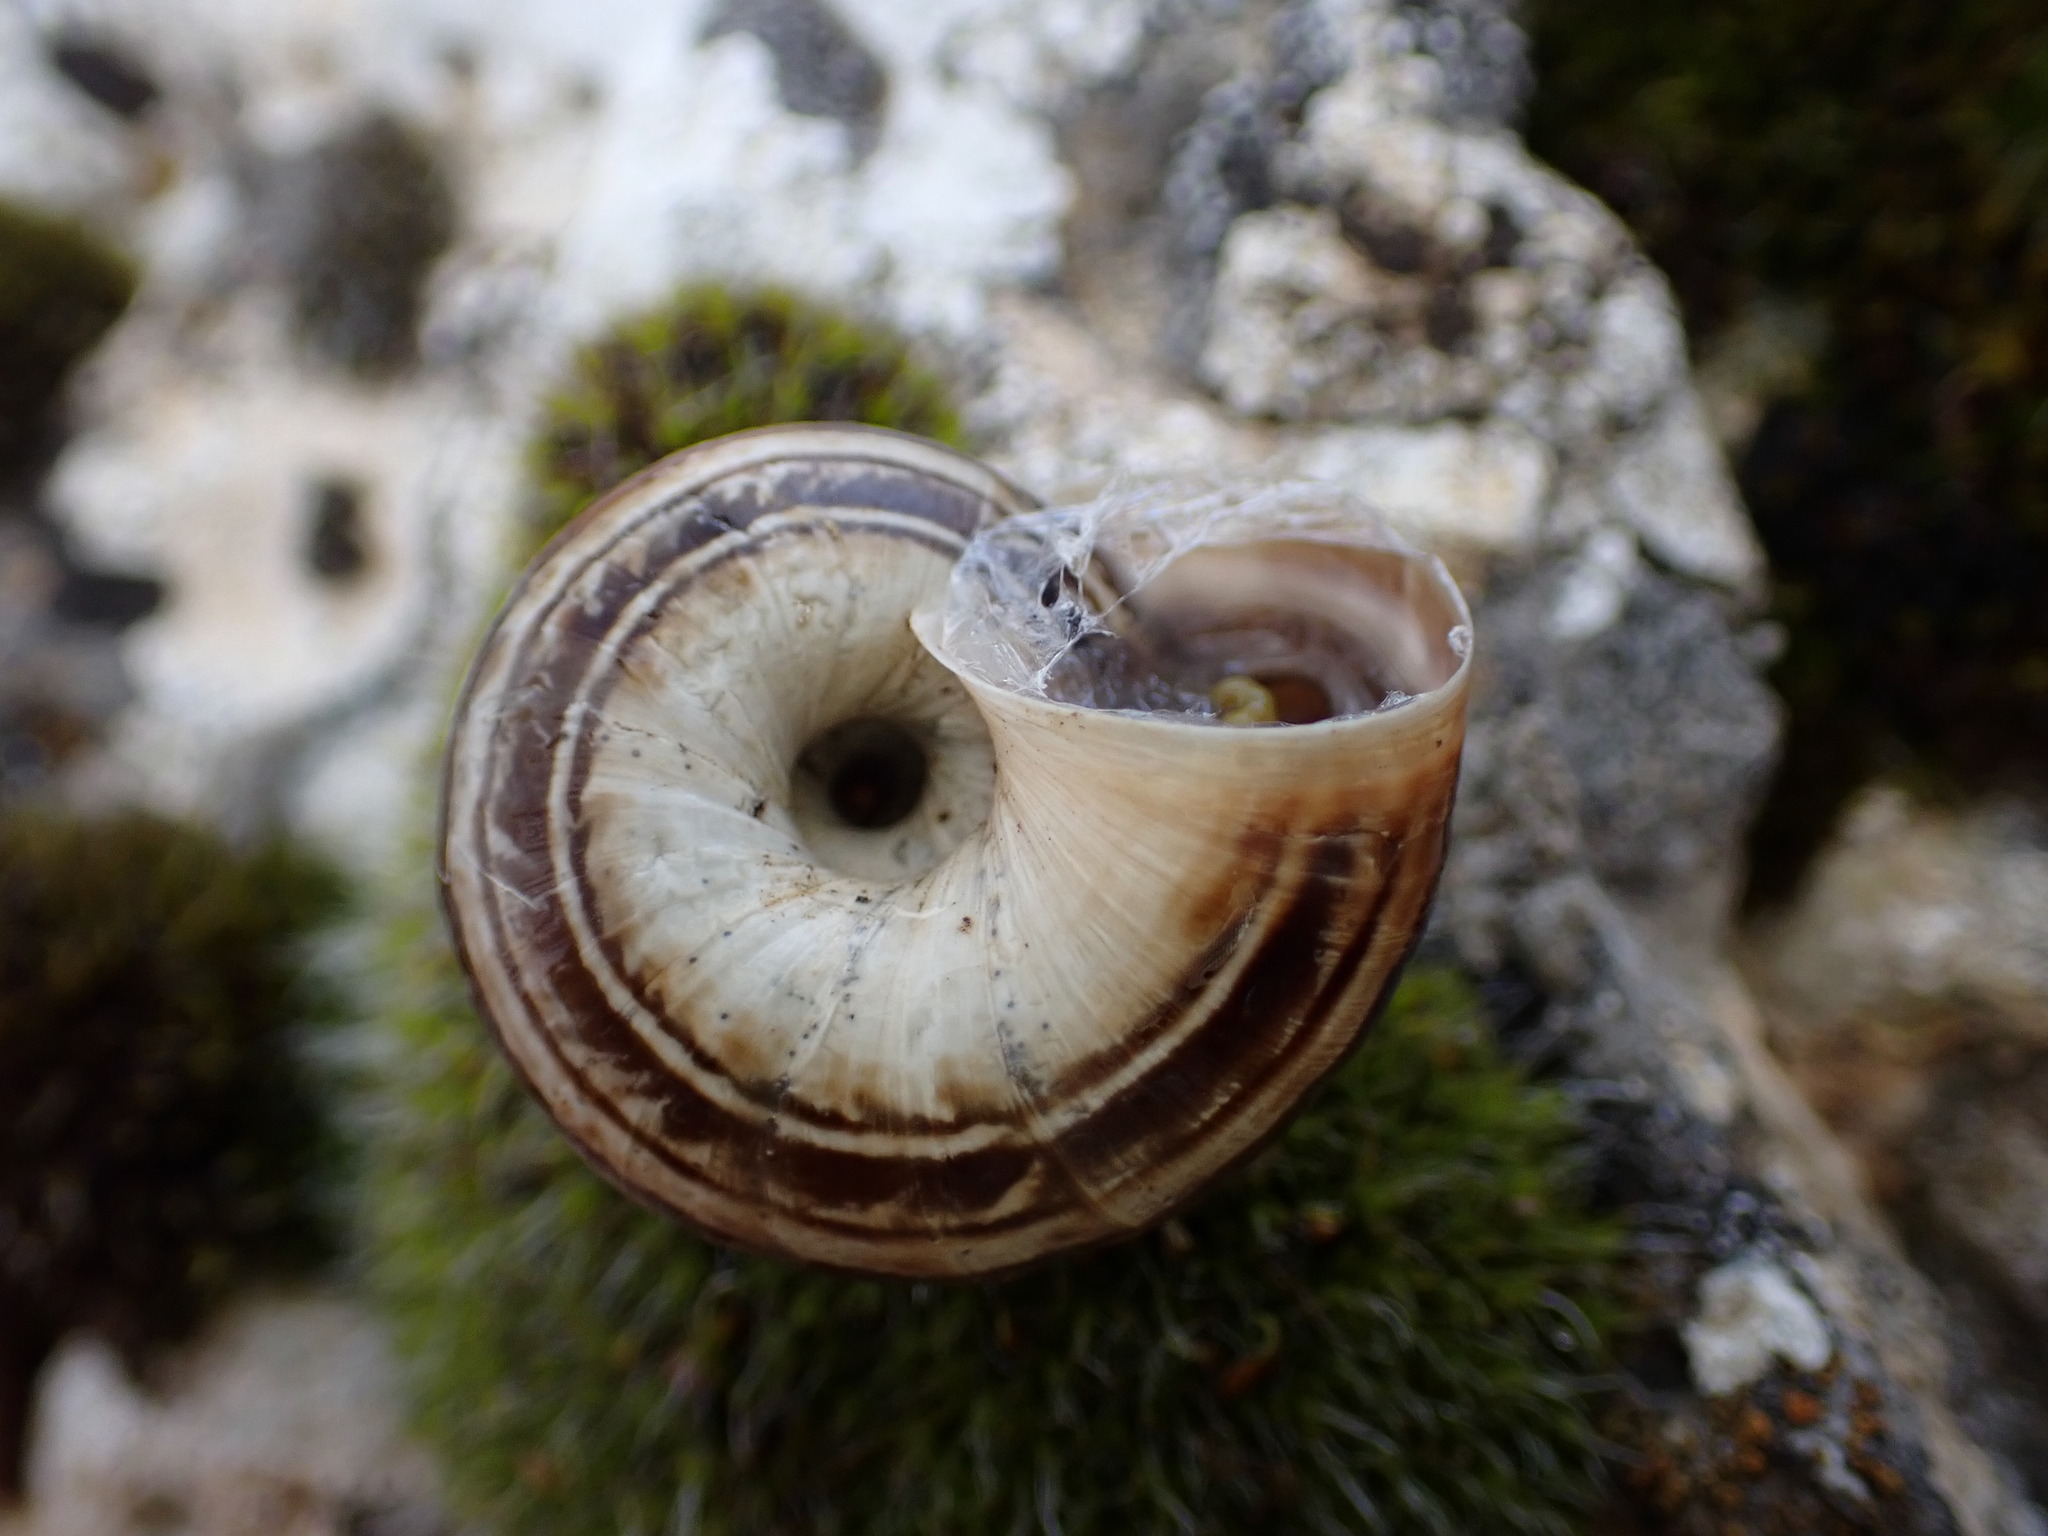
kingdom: Animalia
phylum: Mollusca
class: Gastropoda
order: Stylommatophora
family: Geomitridae
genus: Xerosecta
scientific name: Xerosecta cespitum
